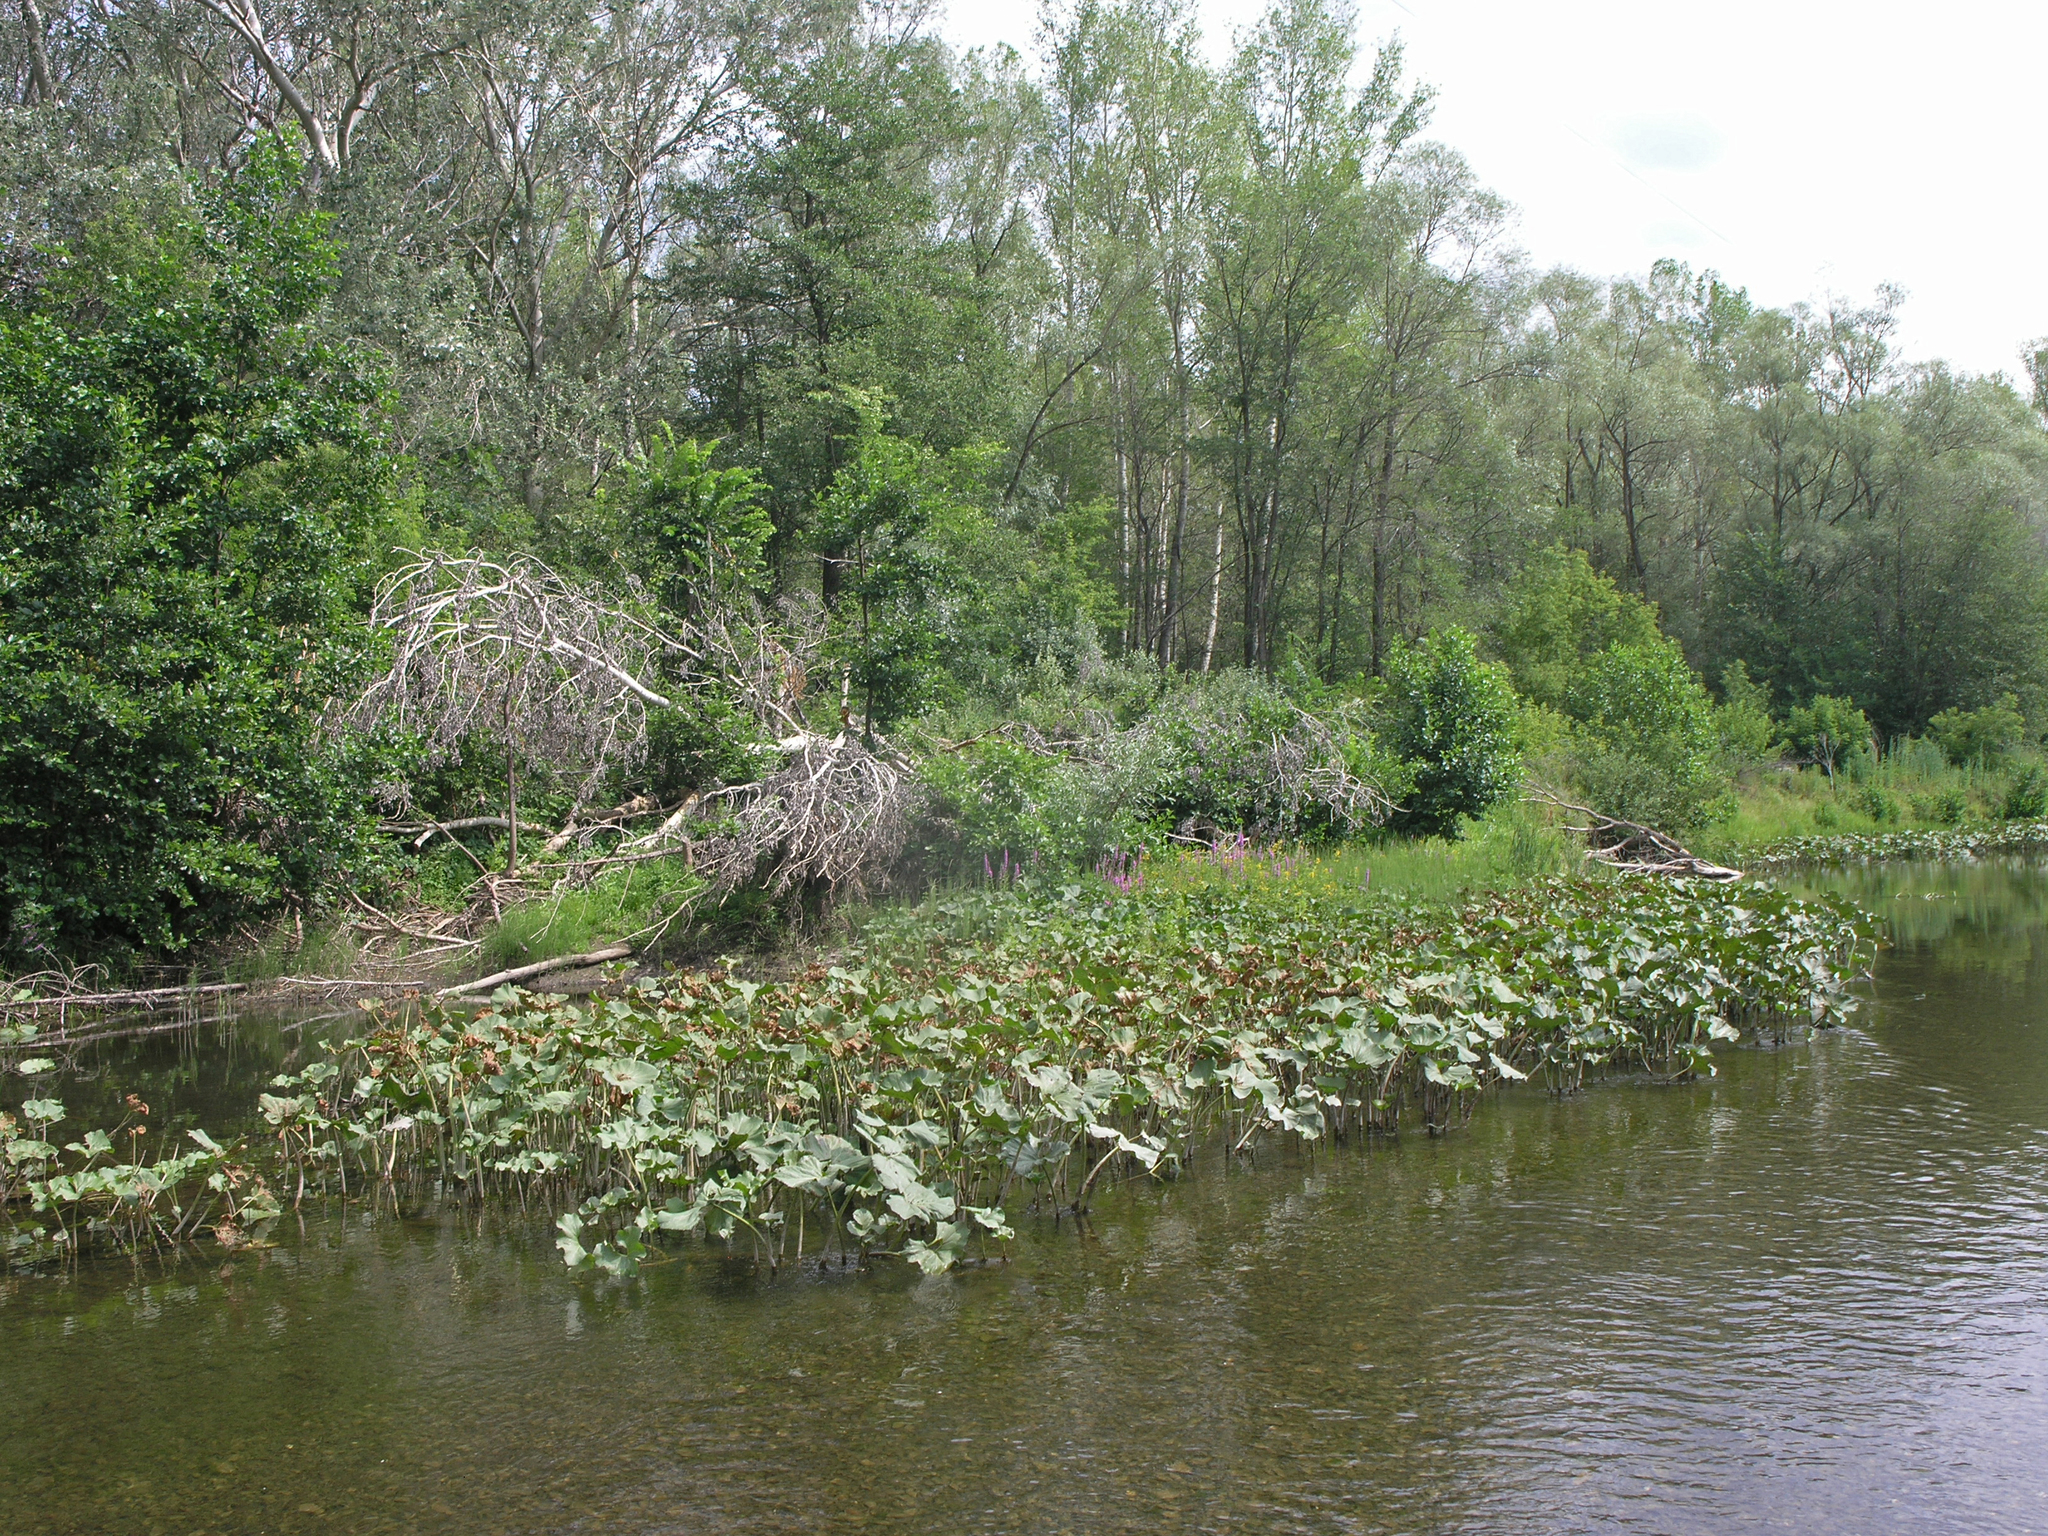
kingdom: Plantae
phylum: Tracheophyta
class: Magnoliopsida
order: Asterales
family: Asteraceae
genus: Petasites
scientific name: Petasites radiatus
